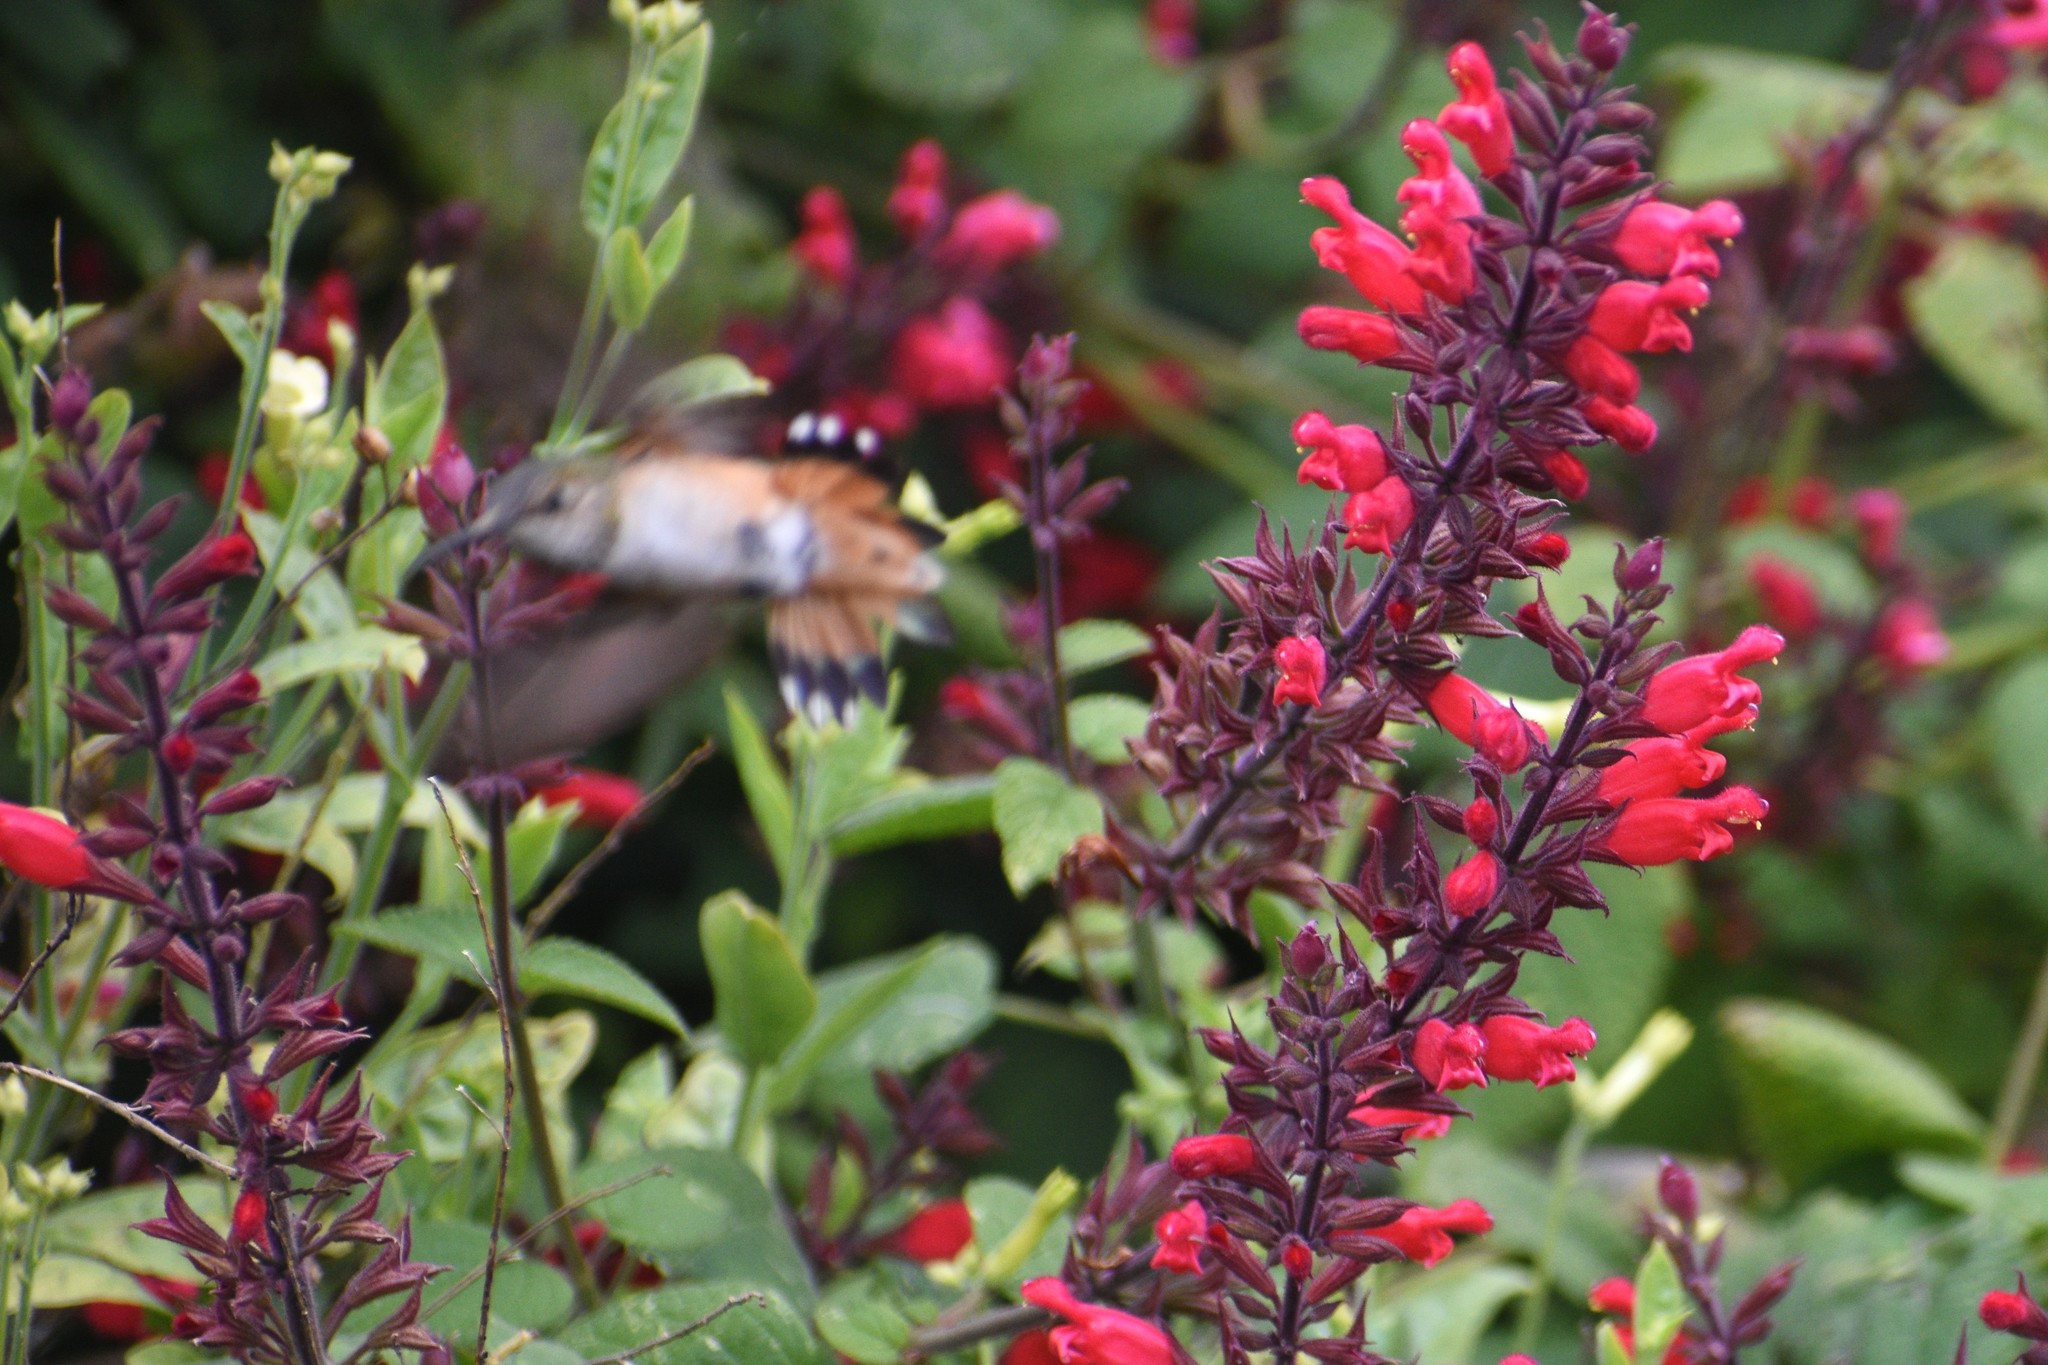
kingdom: Animalia
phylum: Chordata
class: Aves
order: Apodiformes
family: Trochilidae
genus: Selasphorus
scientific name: Selasphorus sasin
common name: Allen's hummingbird
